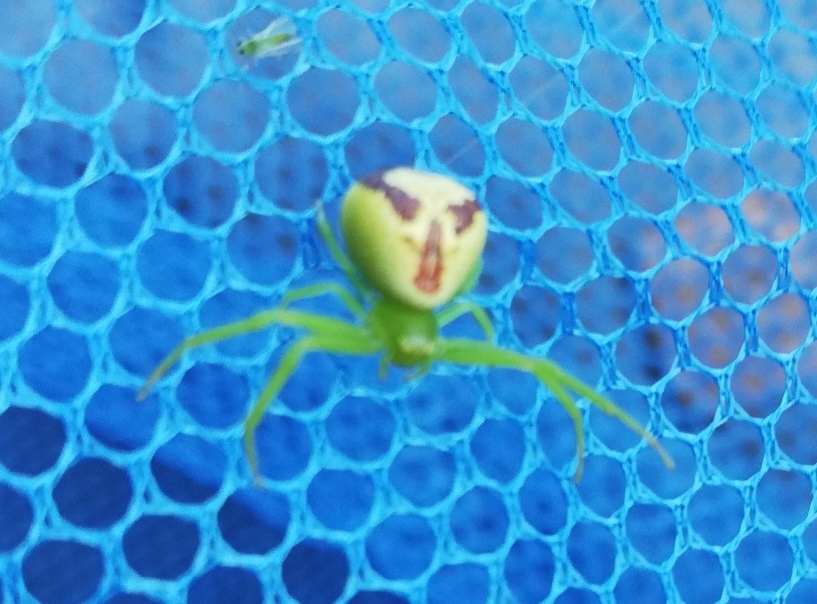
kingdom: Animalia
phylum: Arthropoda
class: Arachnida
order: Araneae
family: Thomisidae
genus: Ebrechtella
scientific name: Ebrechtella tricuspidata
